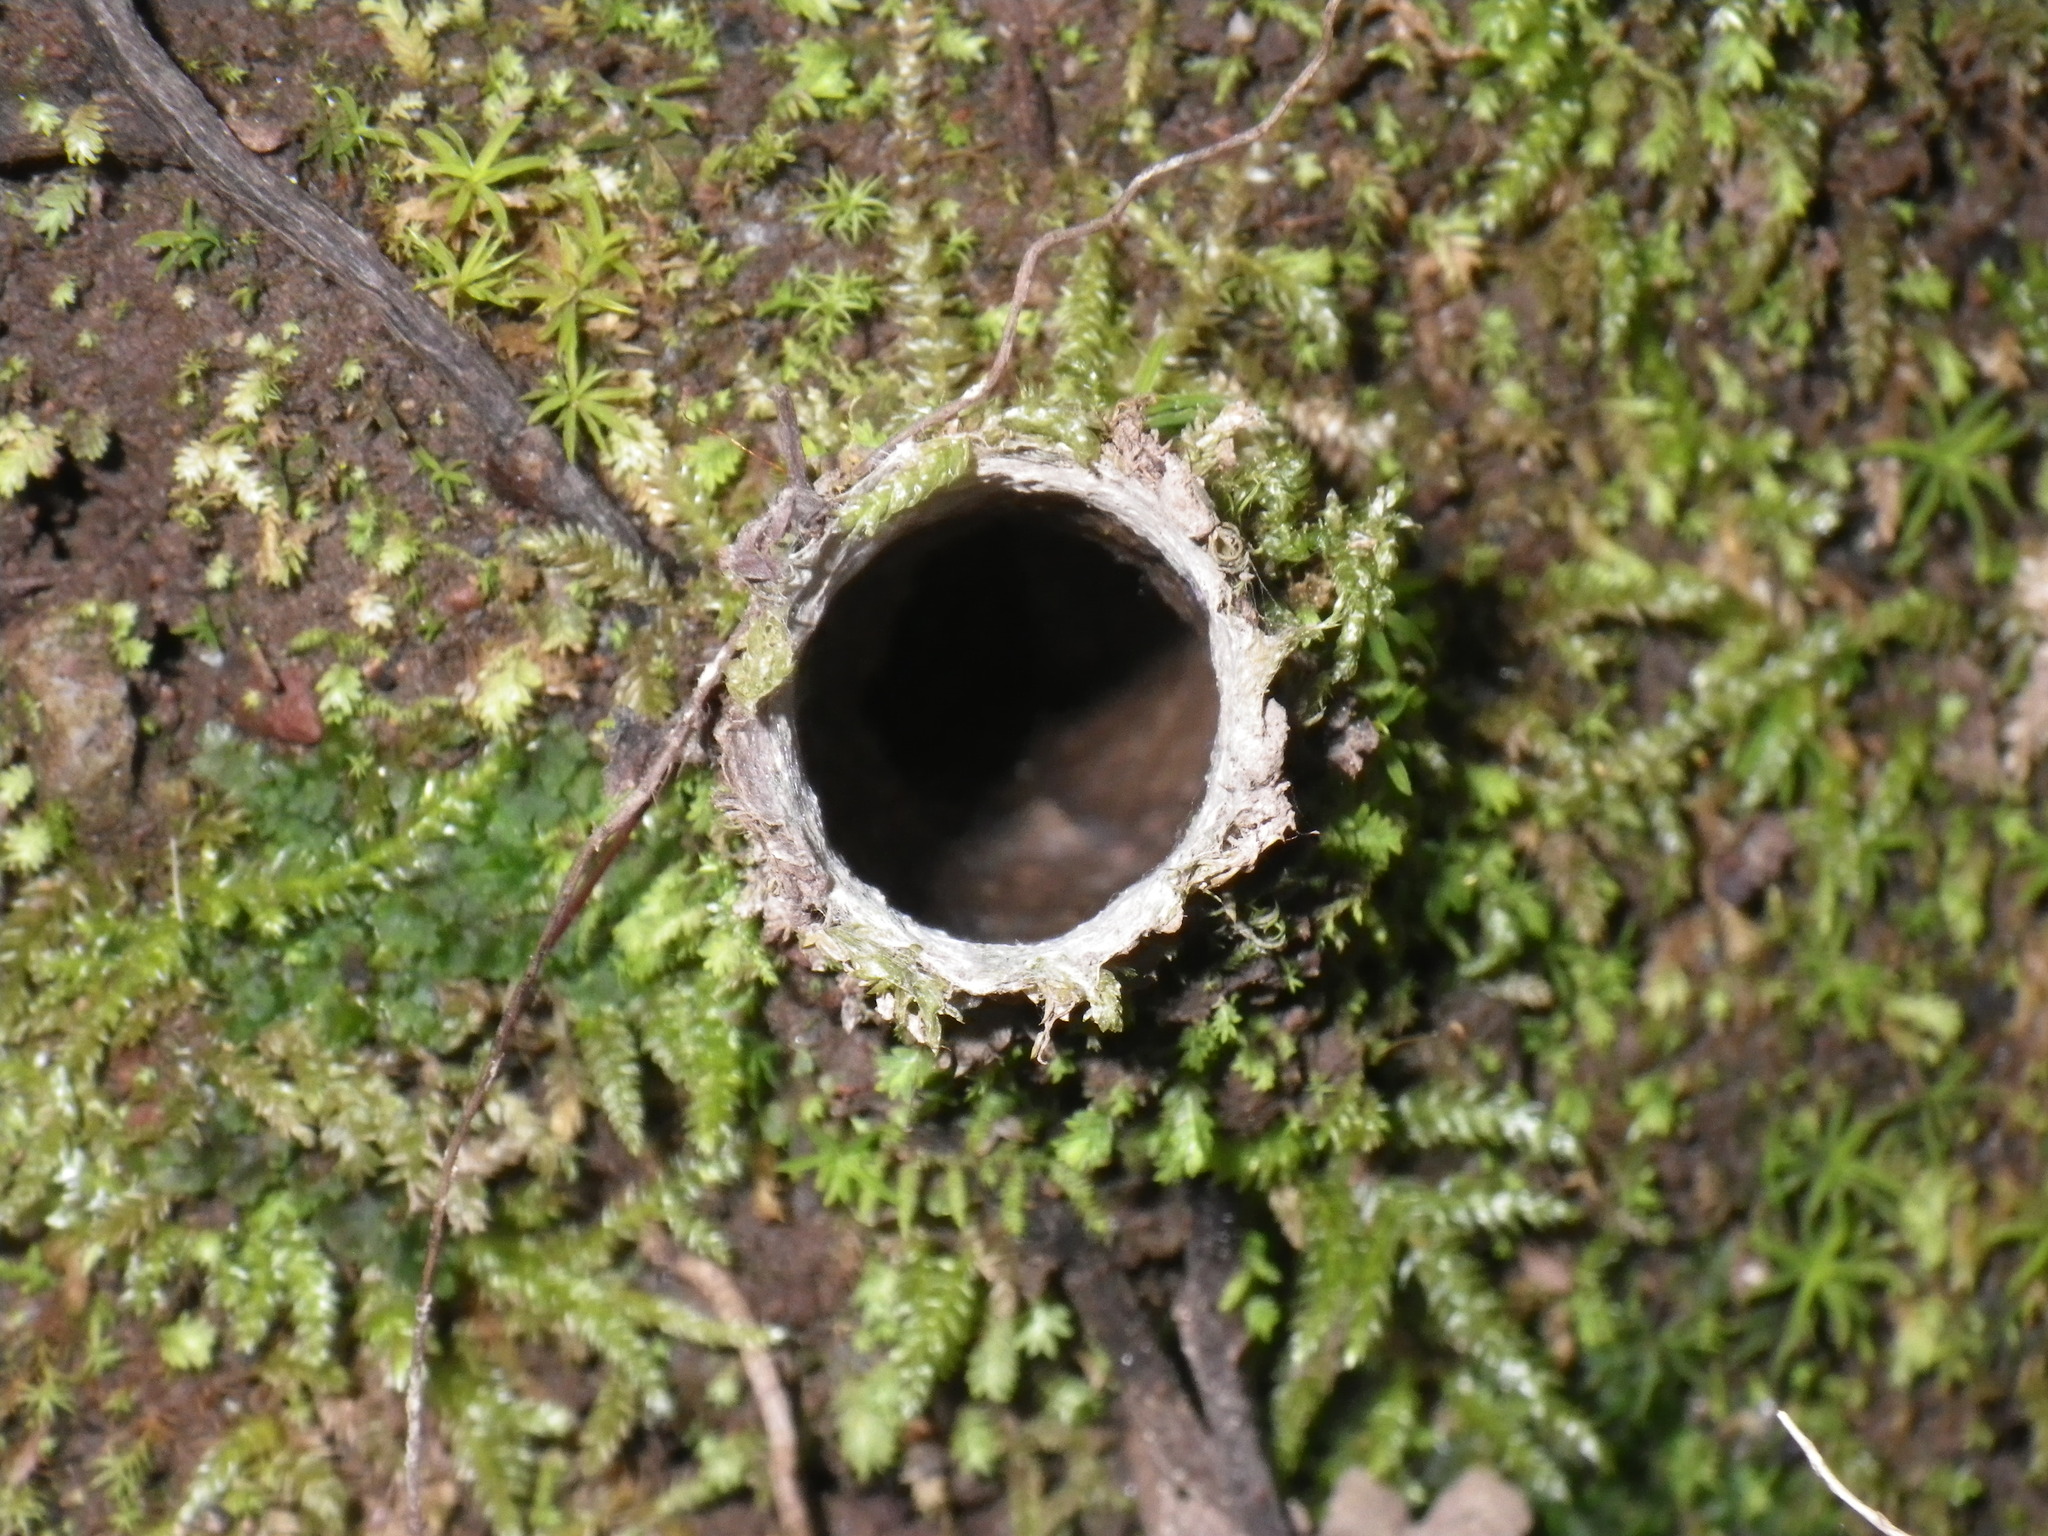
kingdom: Animalia
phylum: Arthropoda
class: Arachnida
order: Araneae
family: Antrodiaetidae
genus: Atypoides
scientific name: Atypoides riversi
